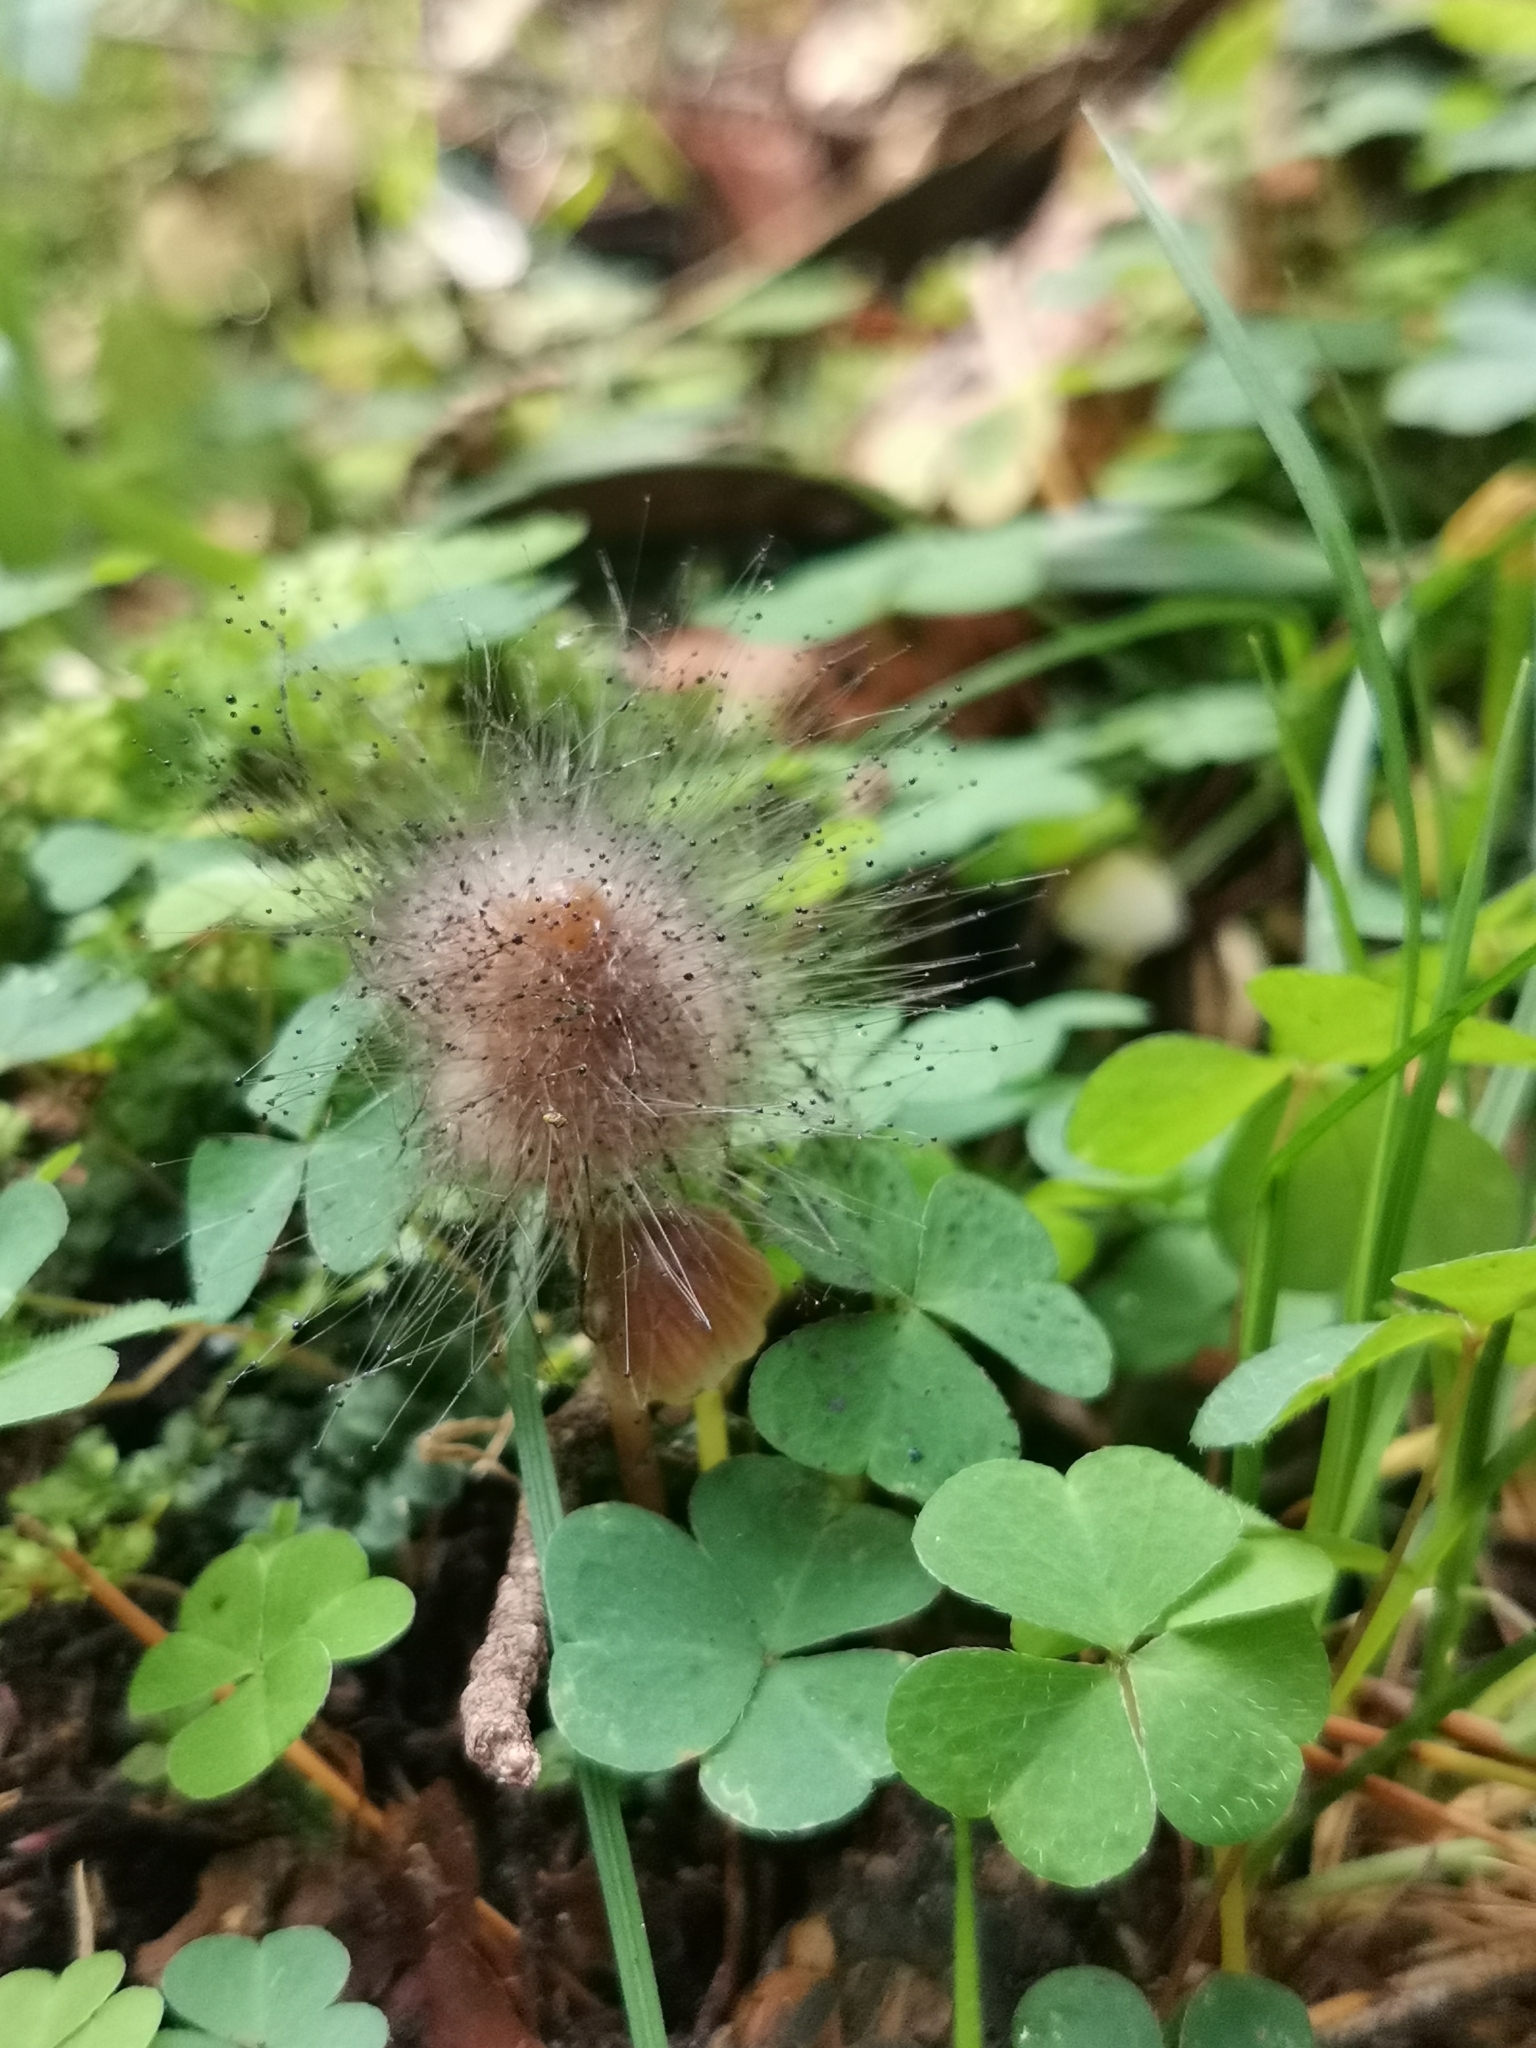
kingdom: Fungi
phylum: Mucoromycota
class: Mucoromycetes
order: Mucorales
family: Phycomycetaceae
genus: Spinellus
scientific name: Spinellus fusiger
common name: Bonnet mould
